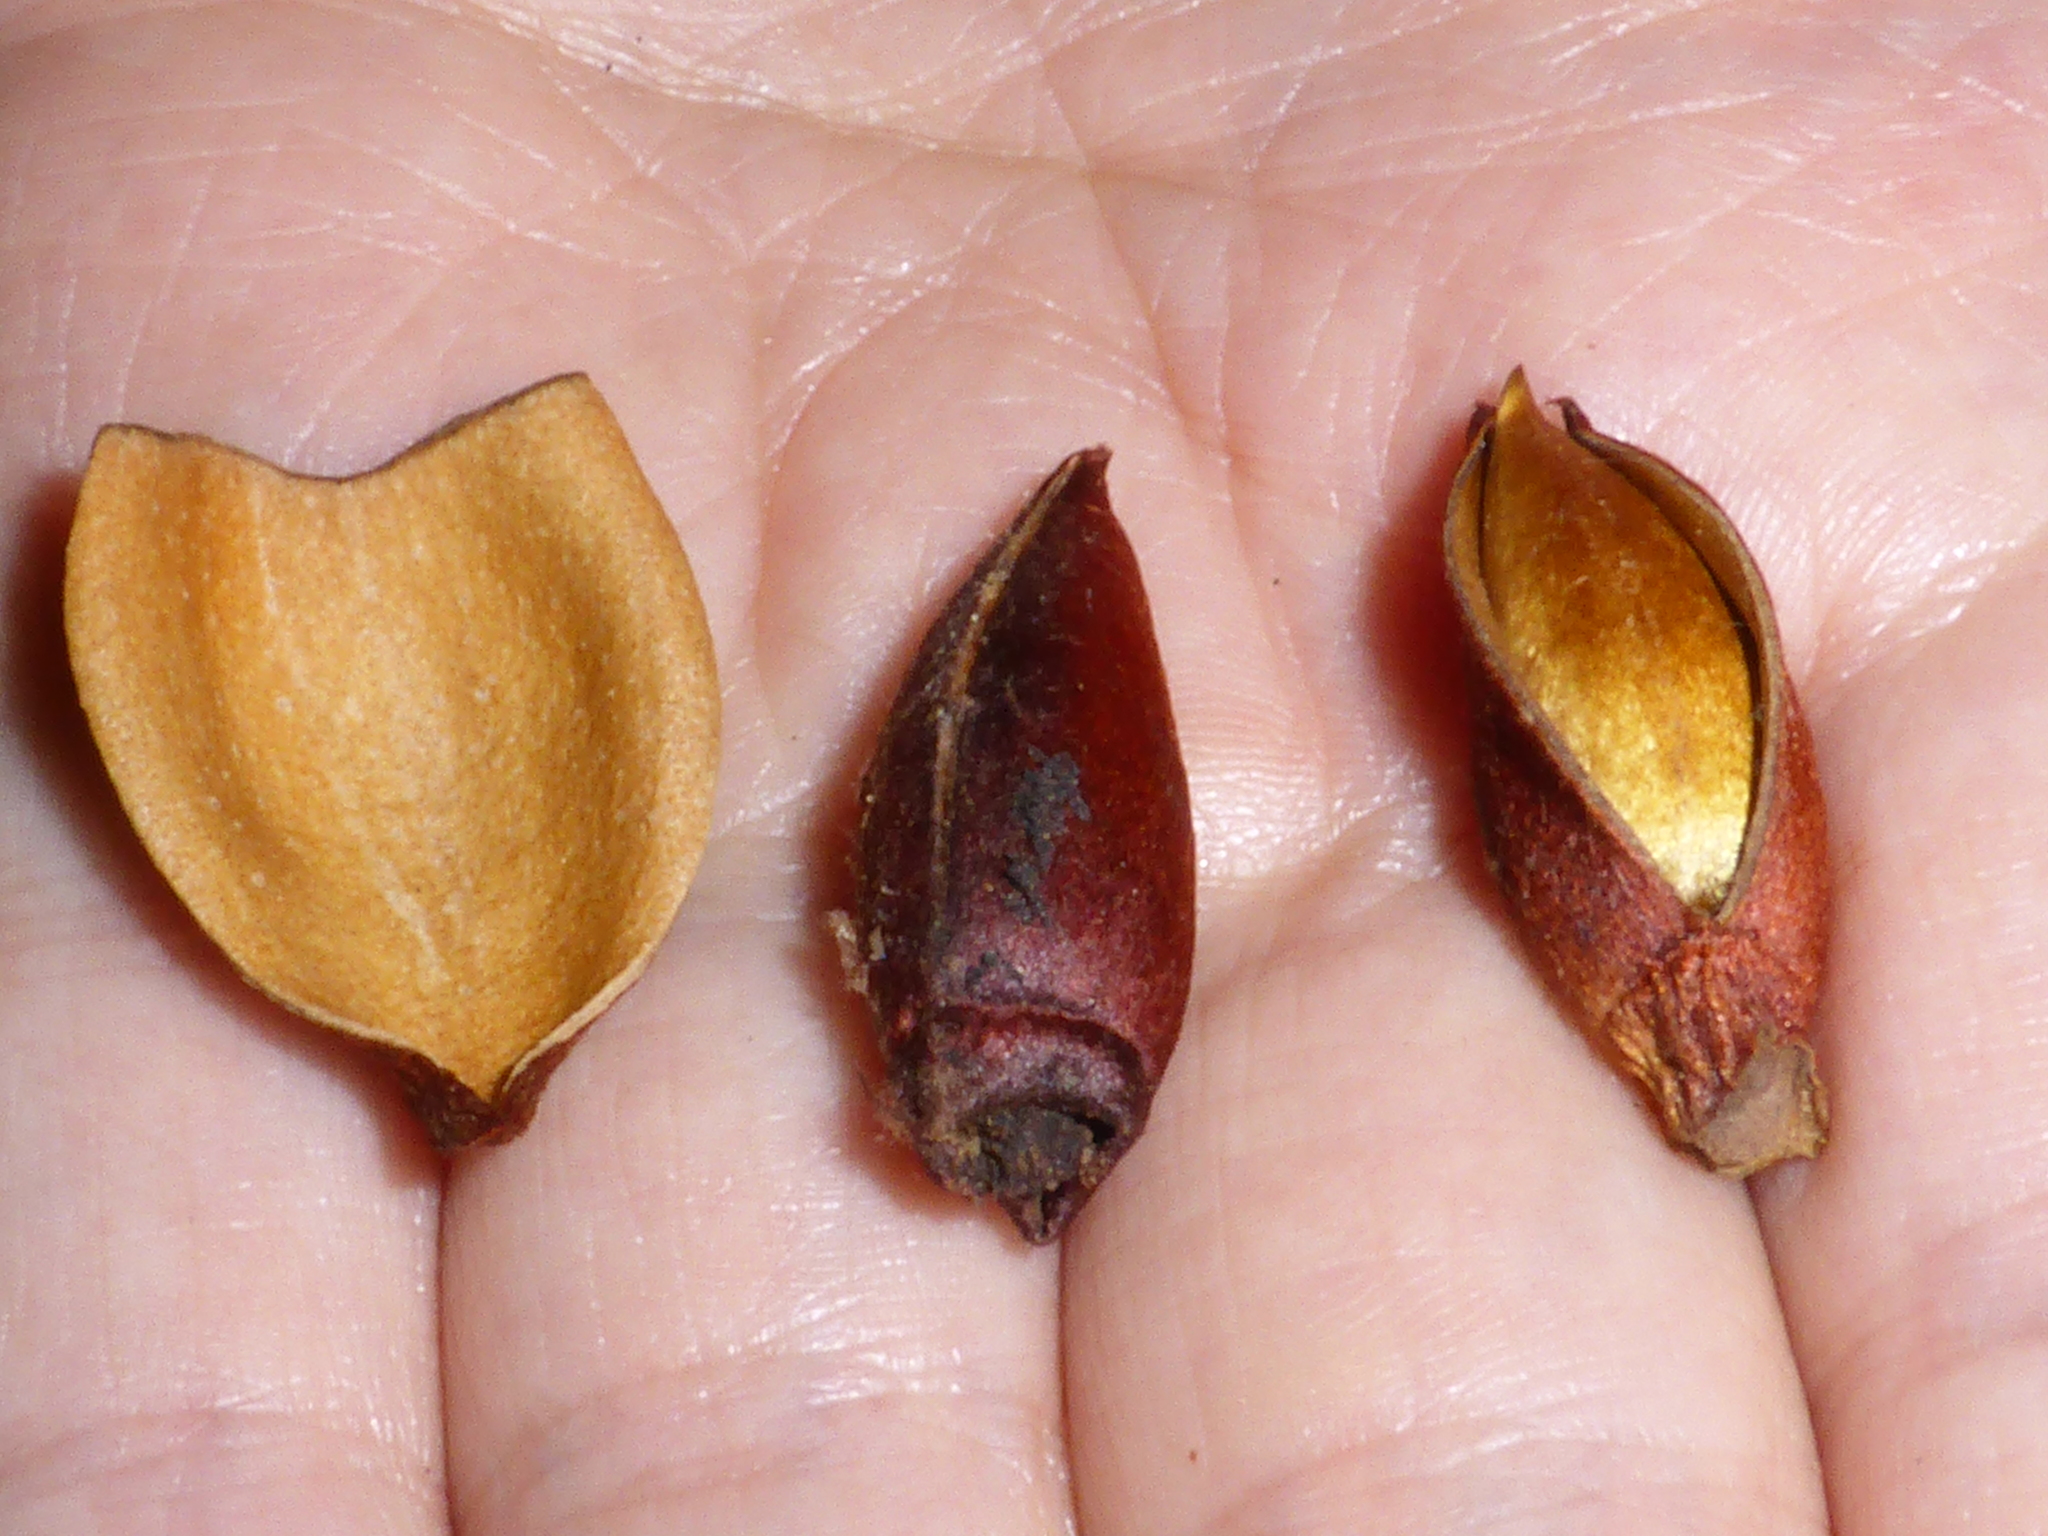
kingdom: Plantae
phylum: Tracheophyta
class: Magnoliopsida
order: Magnoliales
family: Magnoliaceae
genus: Magnolia
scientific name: Magnolia doltsopa
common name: Sweet michelia
